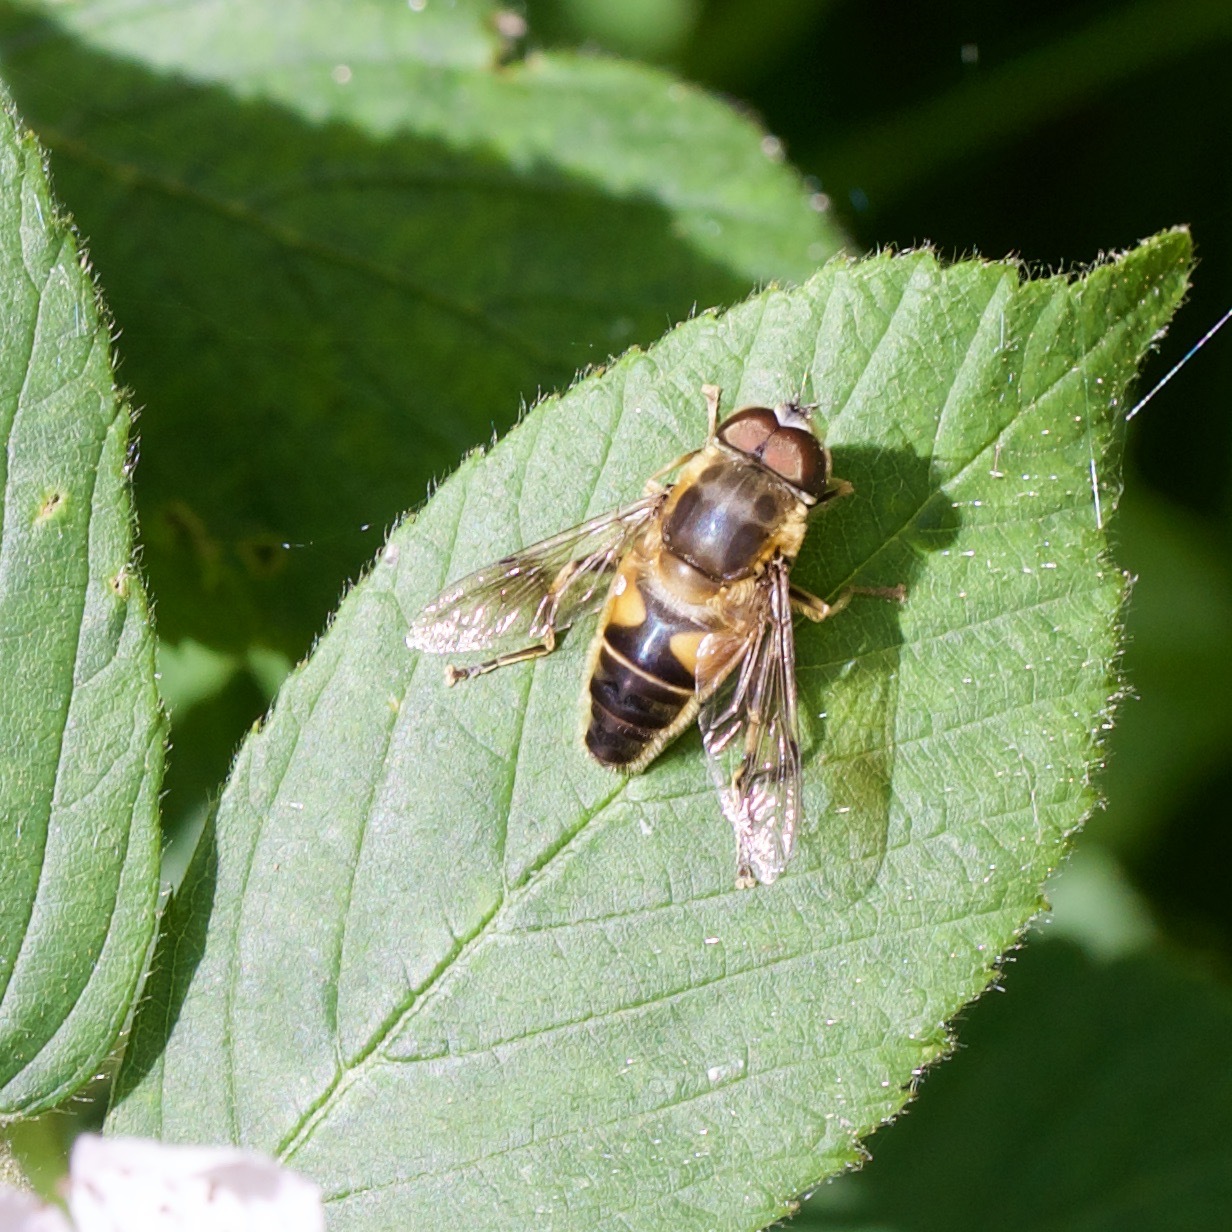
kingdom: Animalia
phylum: Arthropoda
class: Insecta
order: Diptera
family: Syrphidae
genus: Eristalis
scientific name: Eristalis pertinax
